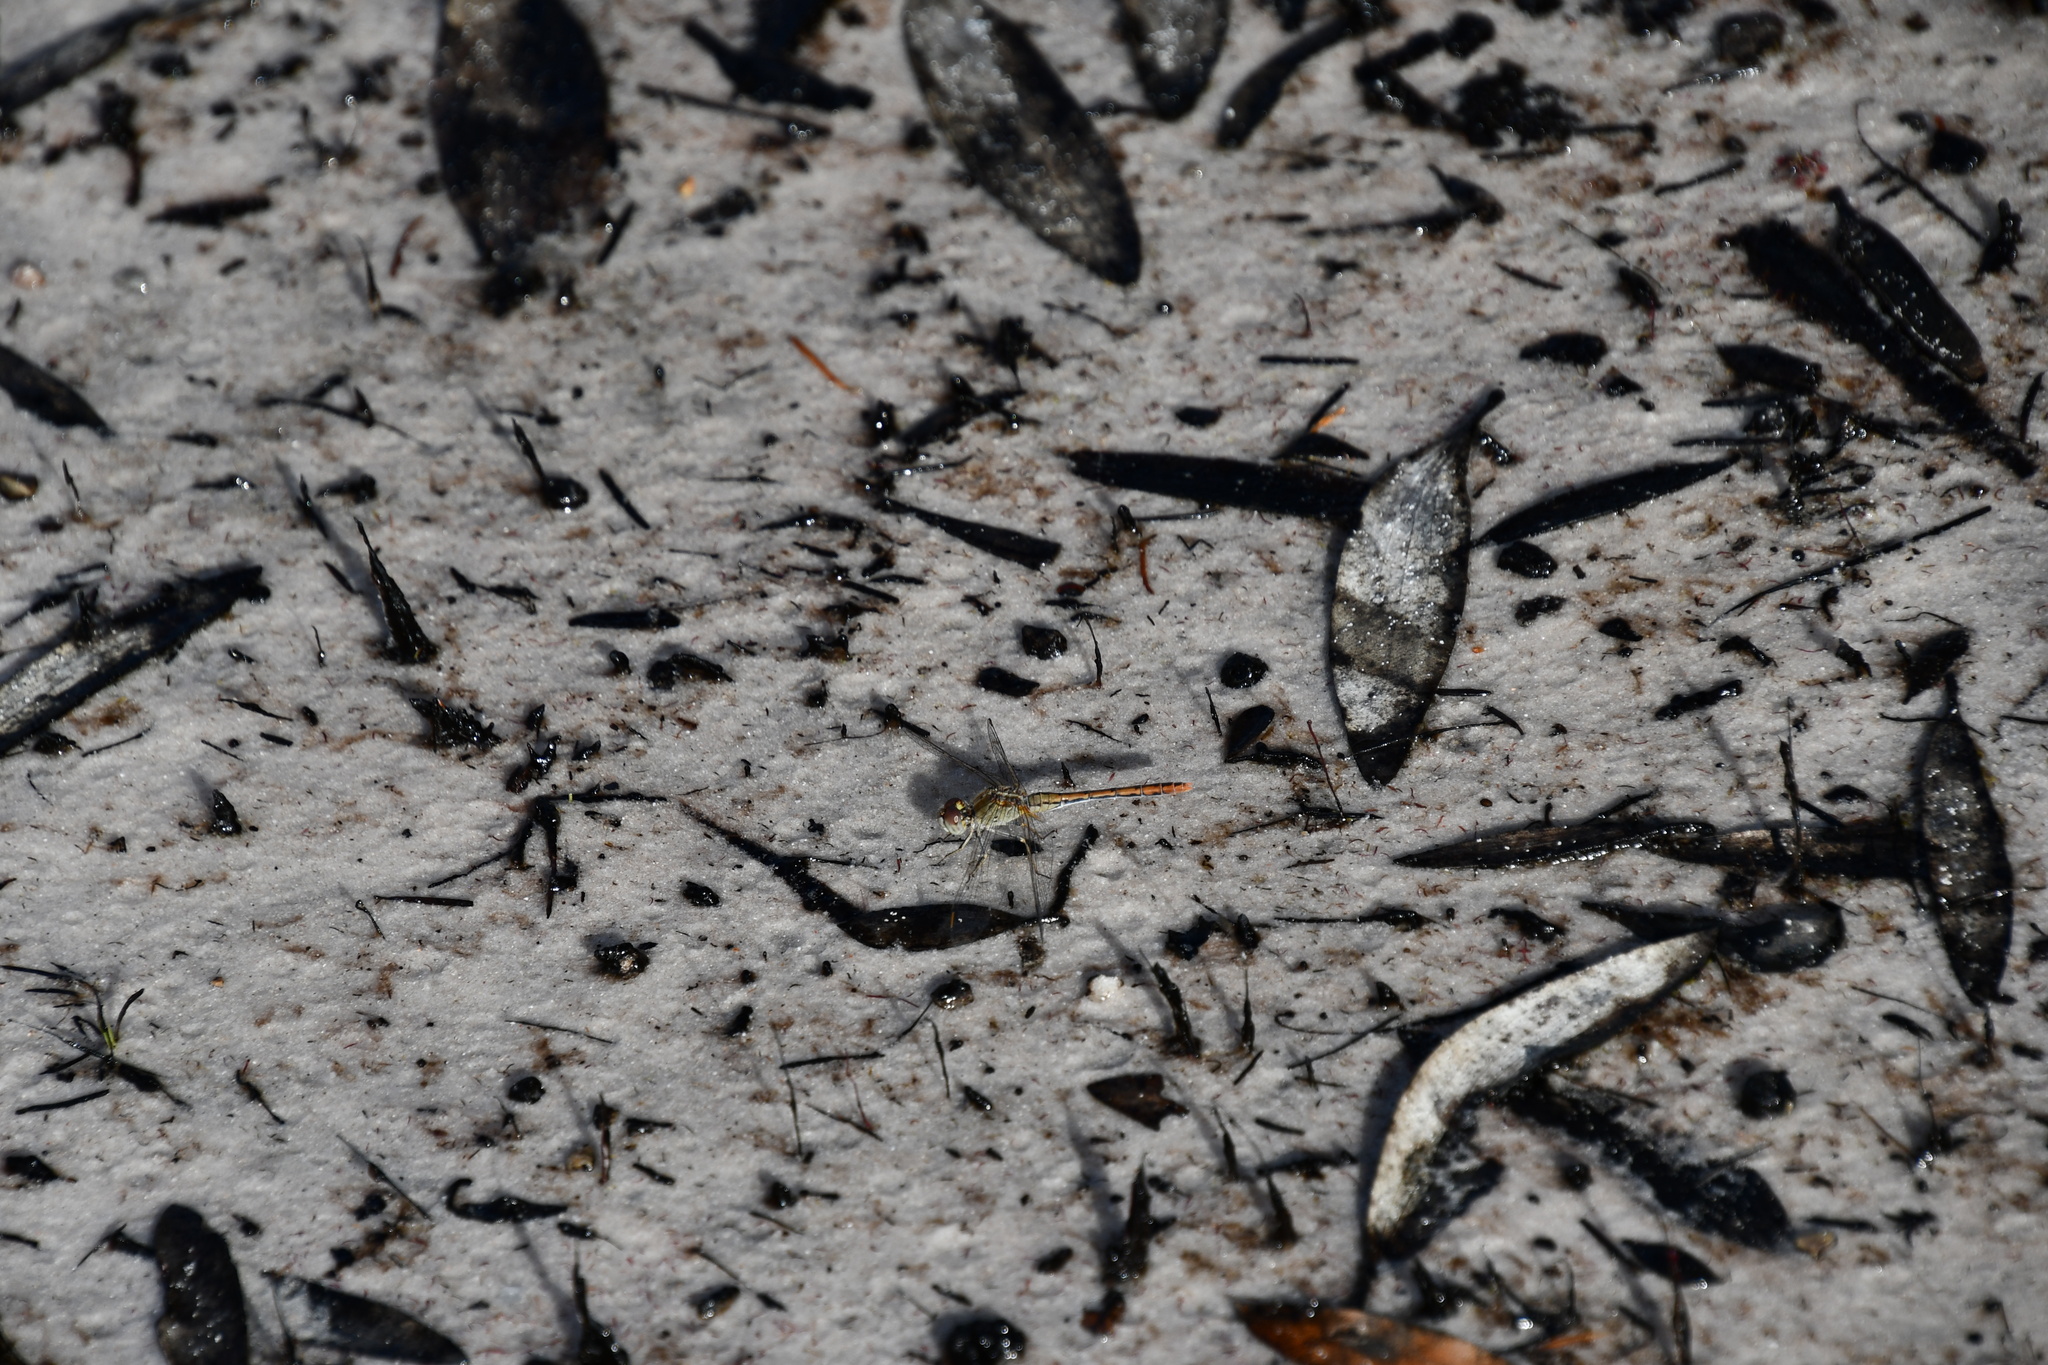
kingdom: Animalia
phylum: Arthropoda
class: Insecta
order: Odonata
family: Libellulidae
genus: Diplacodes
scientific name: Diplacodes bipunctata
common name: Red percher dragonfly
